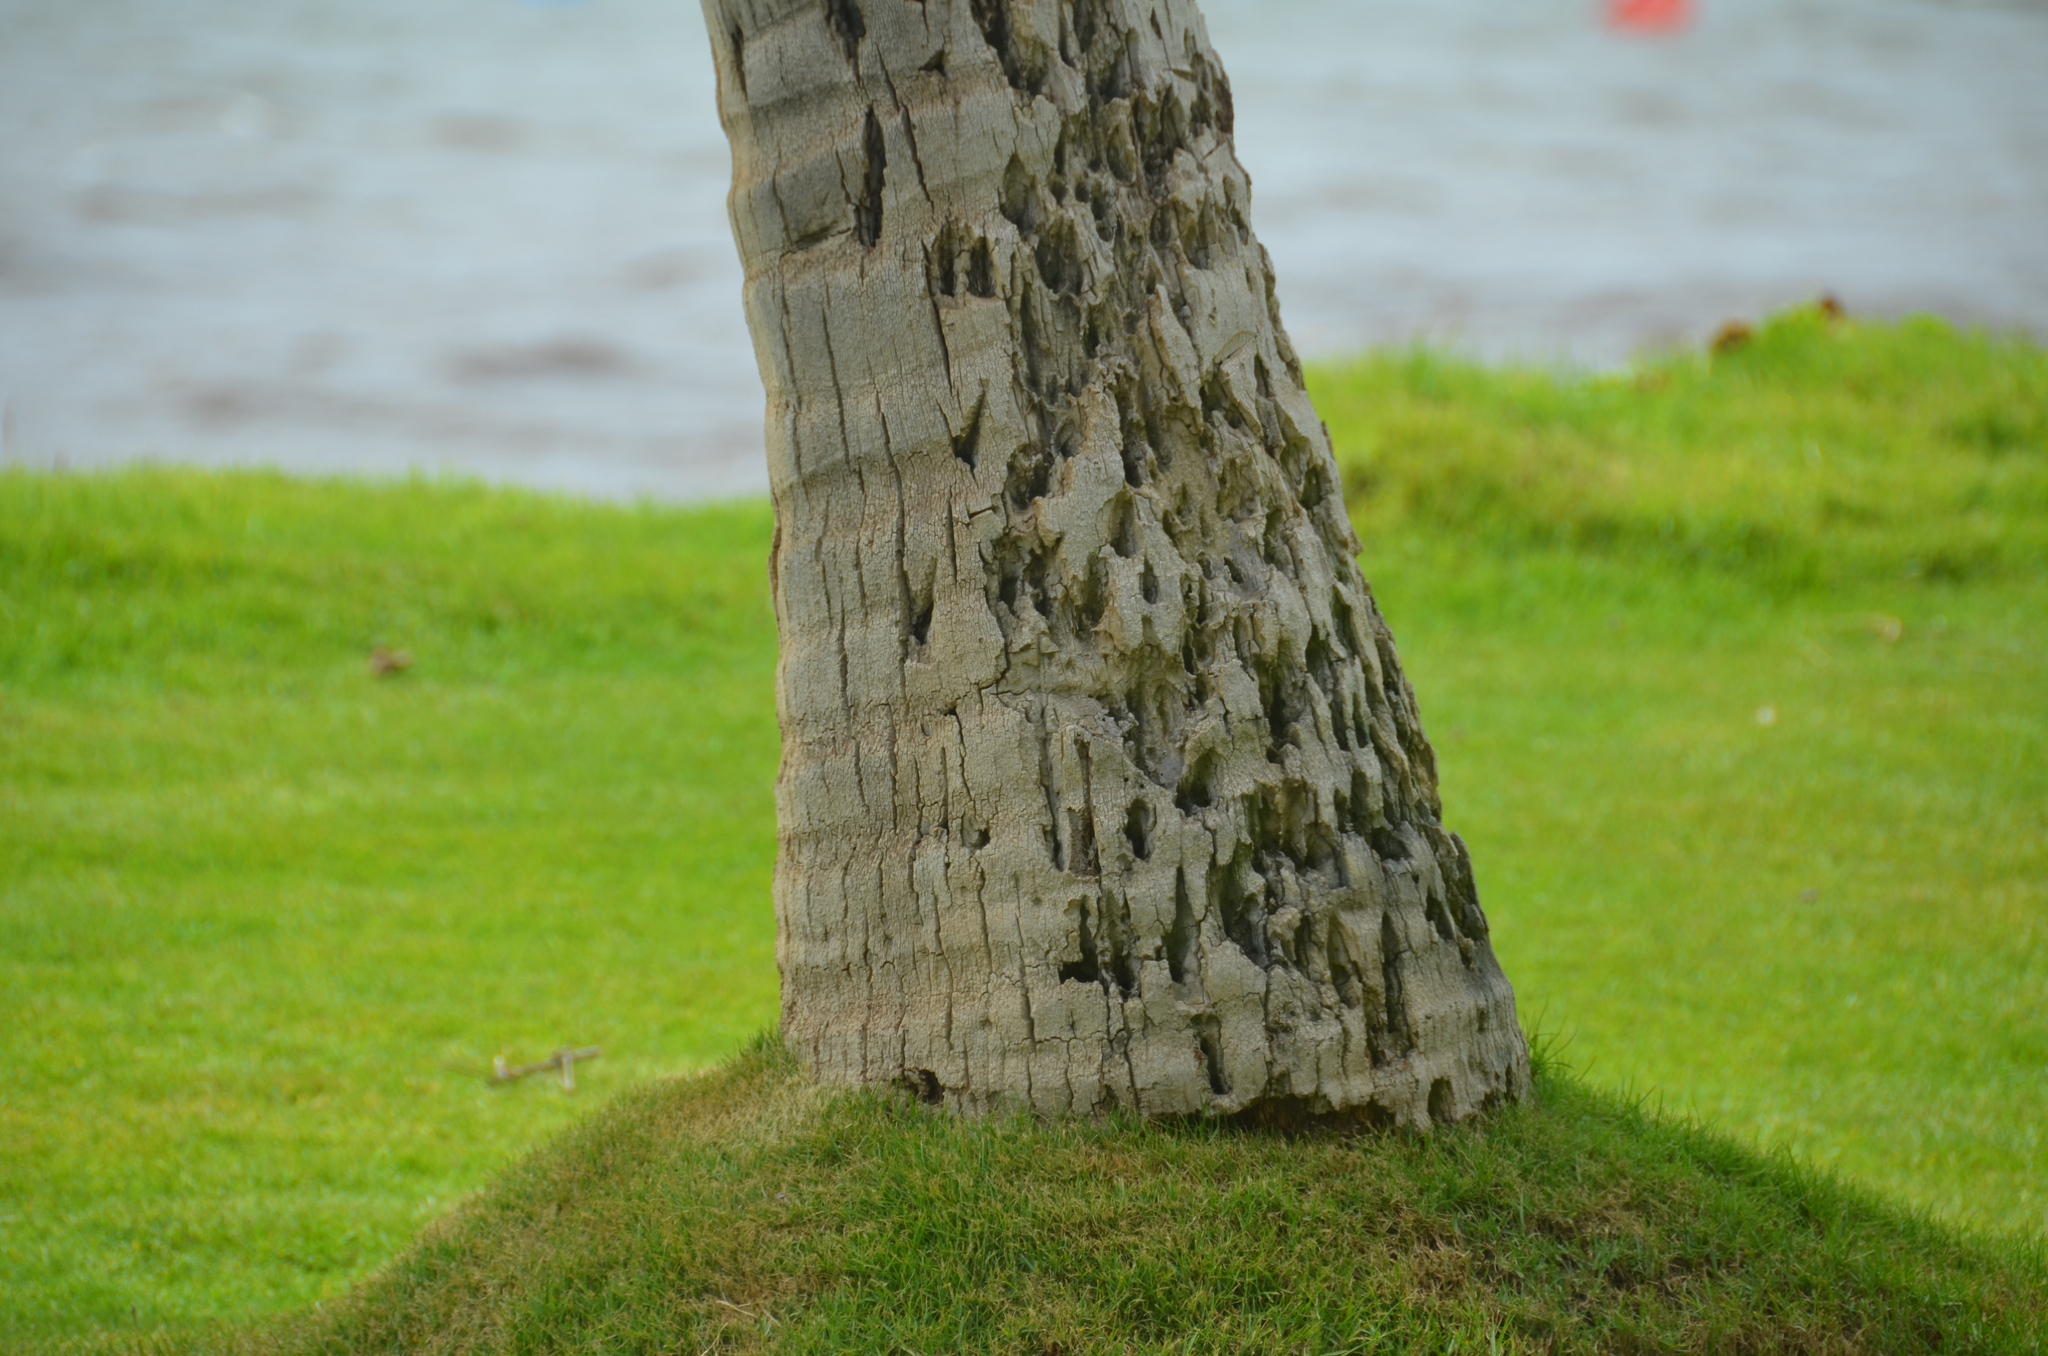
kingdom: Plantae
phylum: Tracheophyta
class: Liliopsida
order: Arecales
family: Arecaceae
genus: Cocos
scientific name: Cocos nucifera
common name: Coconut palm
